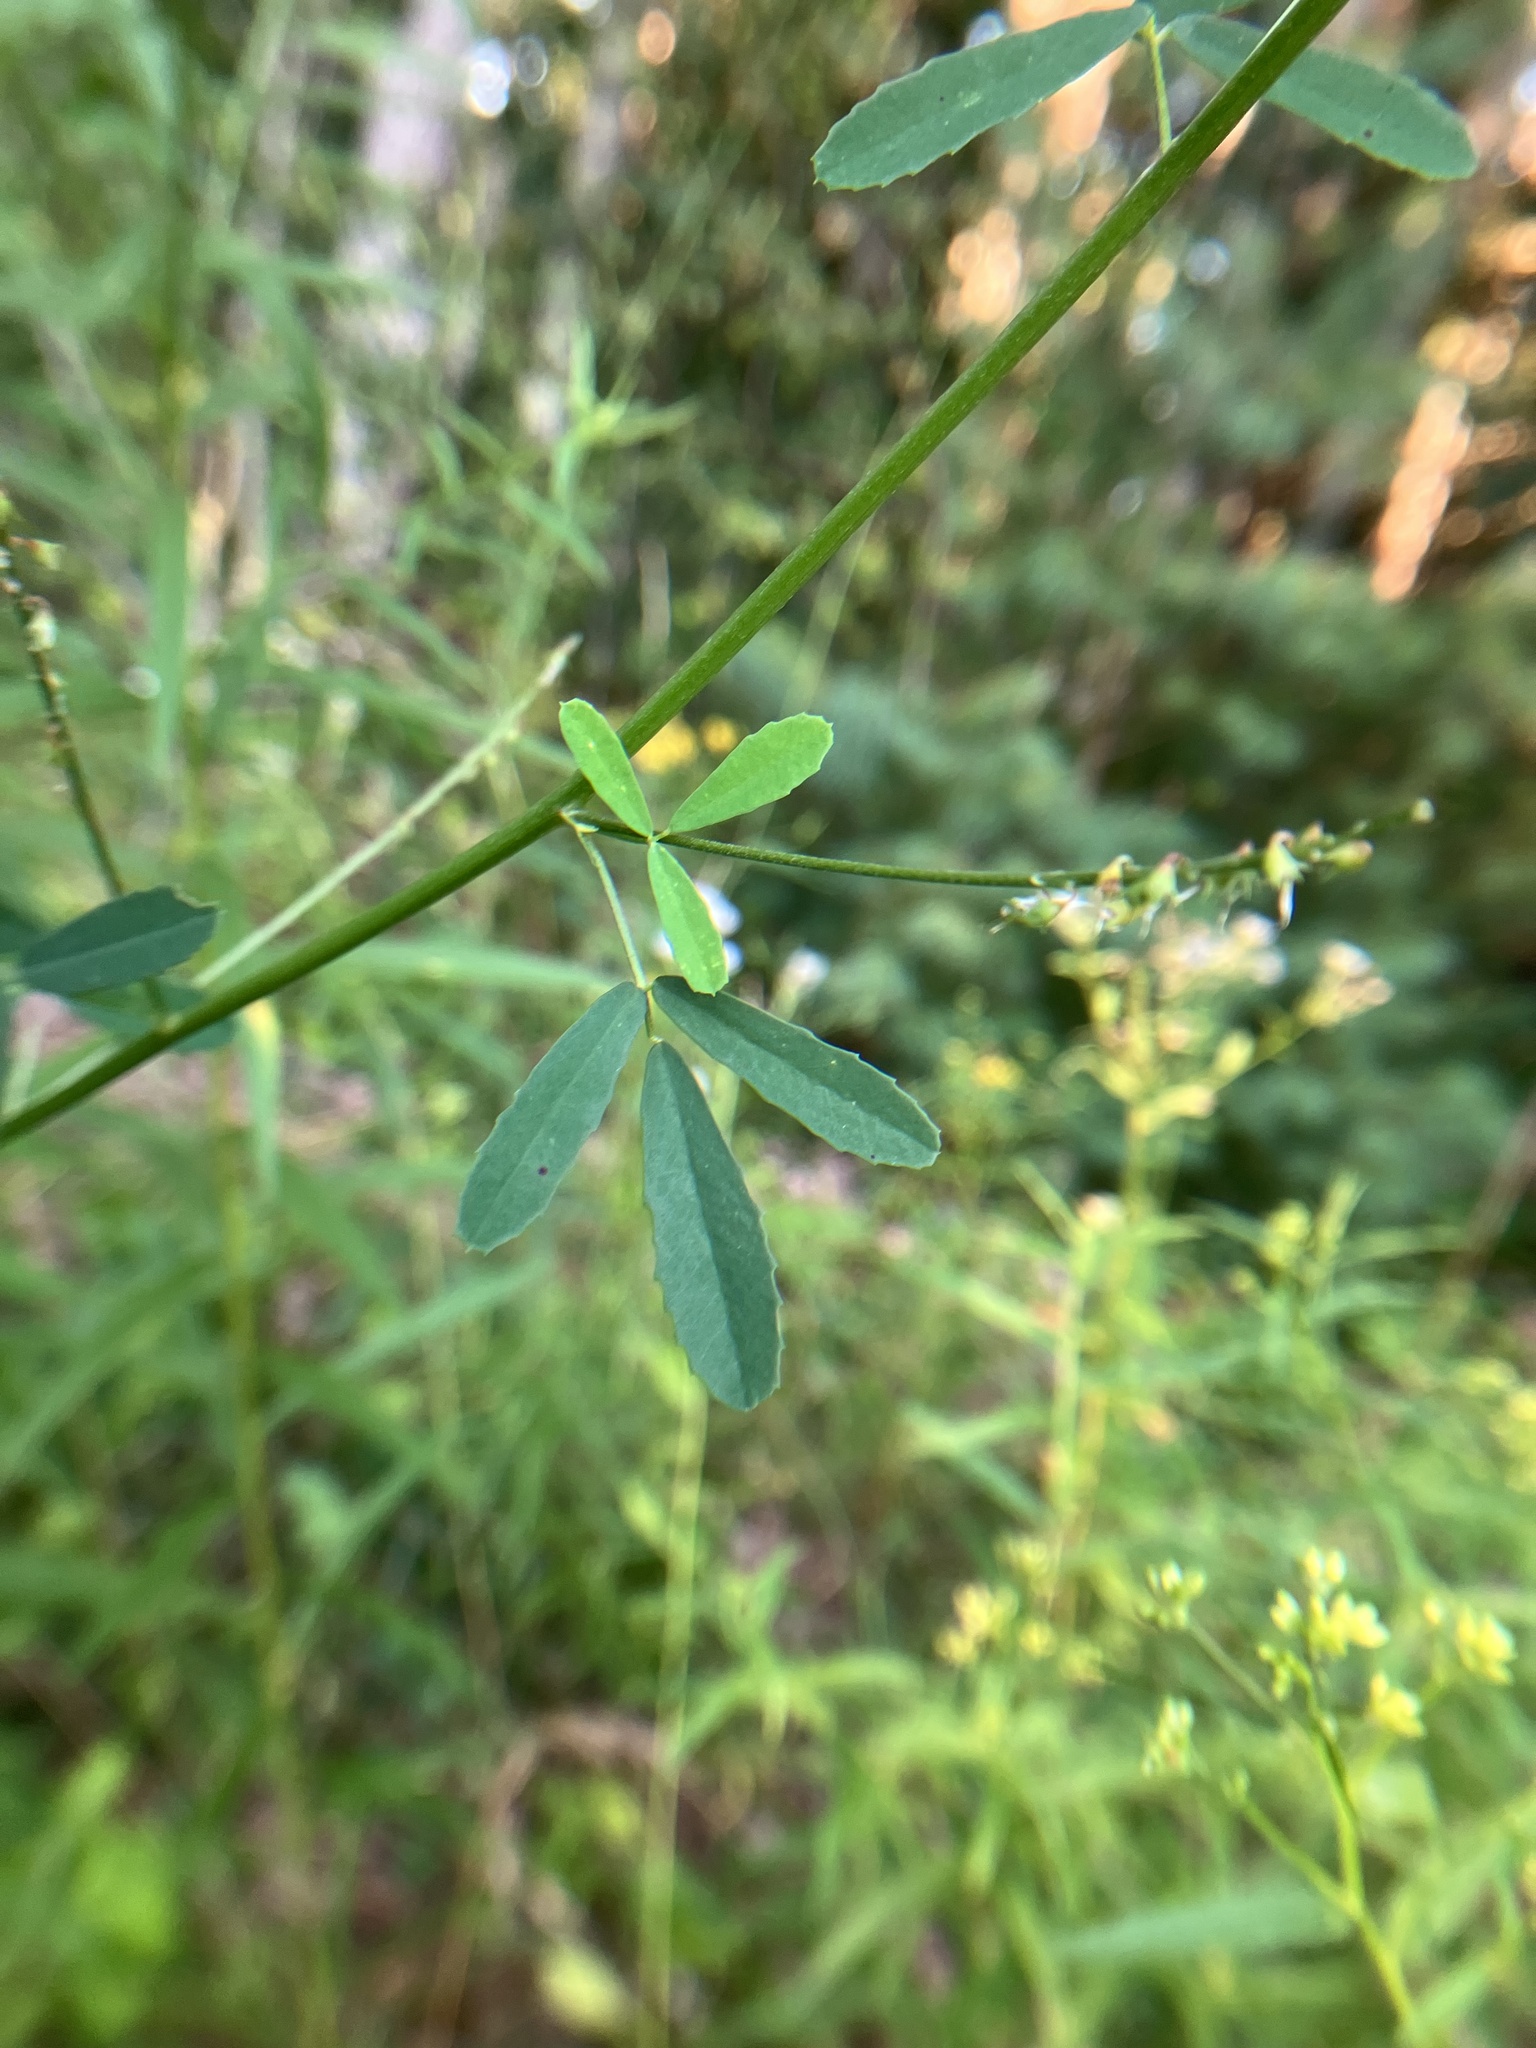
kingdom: Plantae
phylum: Tracheophyta
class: Magnoliopsida
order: Fabales
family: Fabaceae
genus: Melilotus
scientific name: Melilotus albus
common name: White melilot
